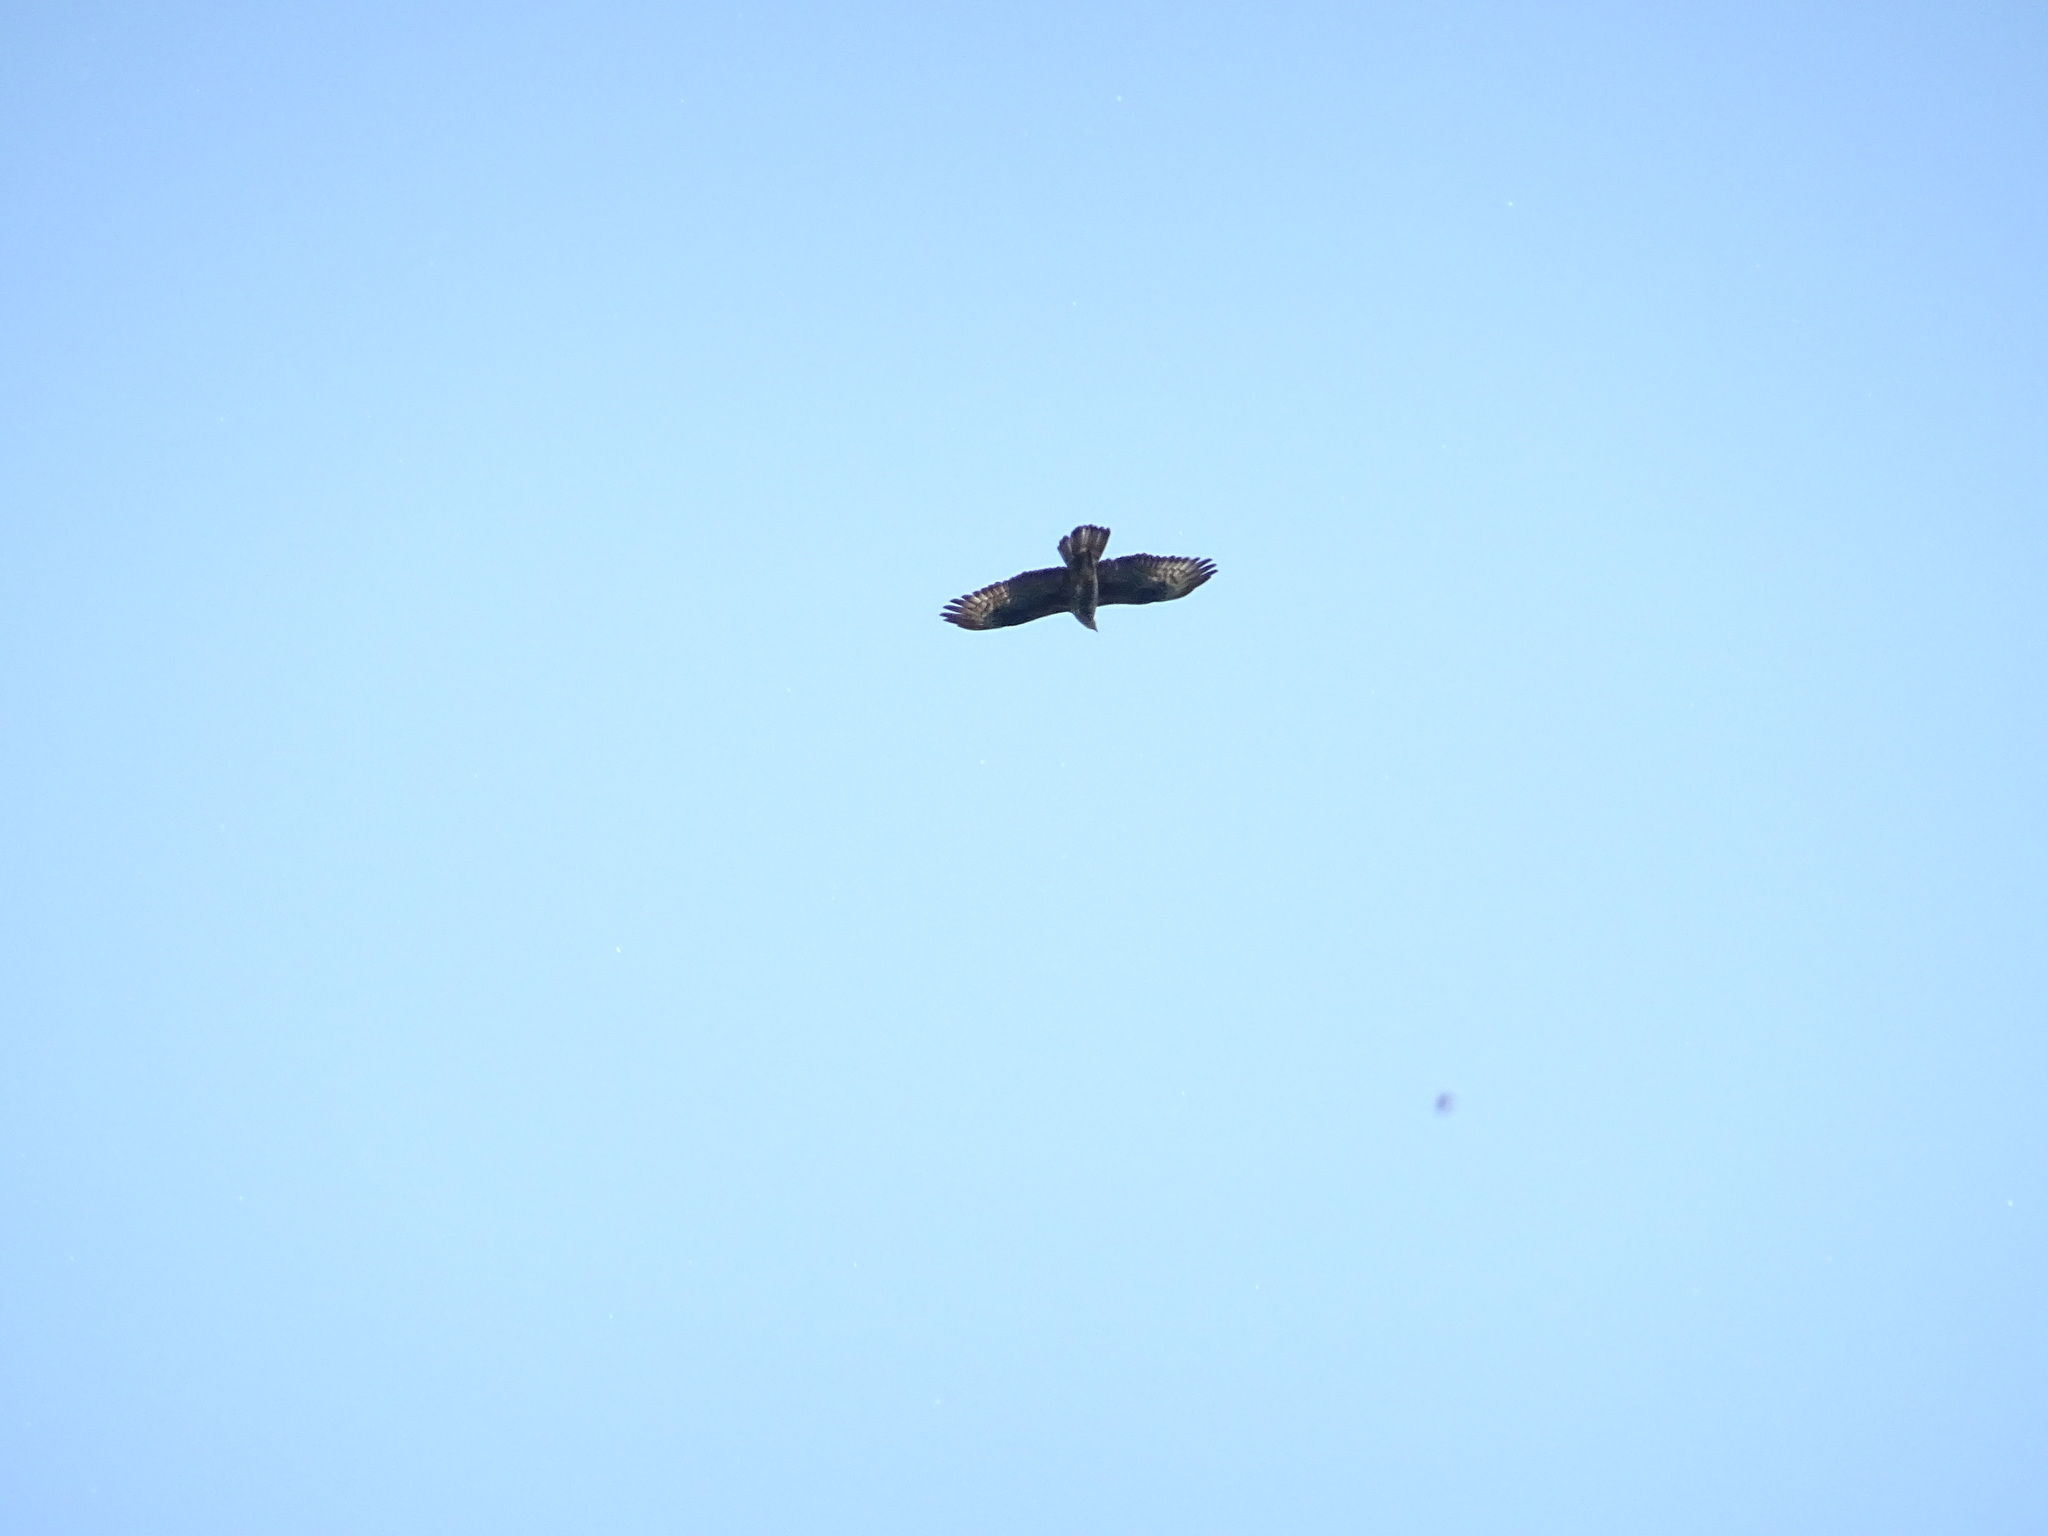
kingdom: Animalia
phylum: Chordata
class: Aves
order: Accipitriformes
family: Accipitridae
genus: Pernis
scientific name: Pernis apivorus
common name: European honey buzzard
